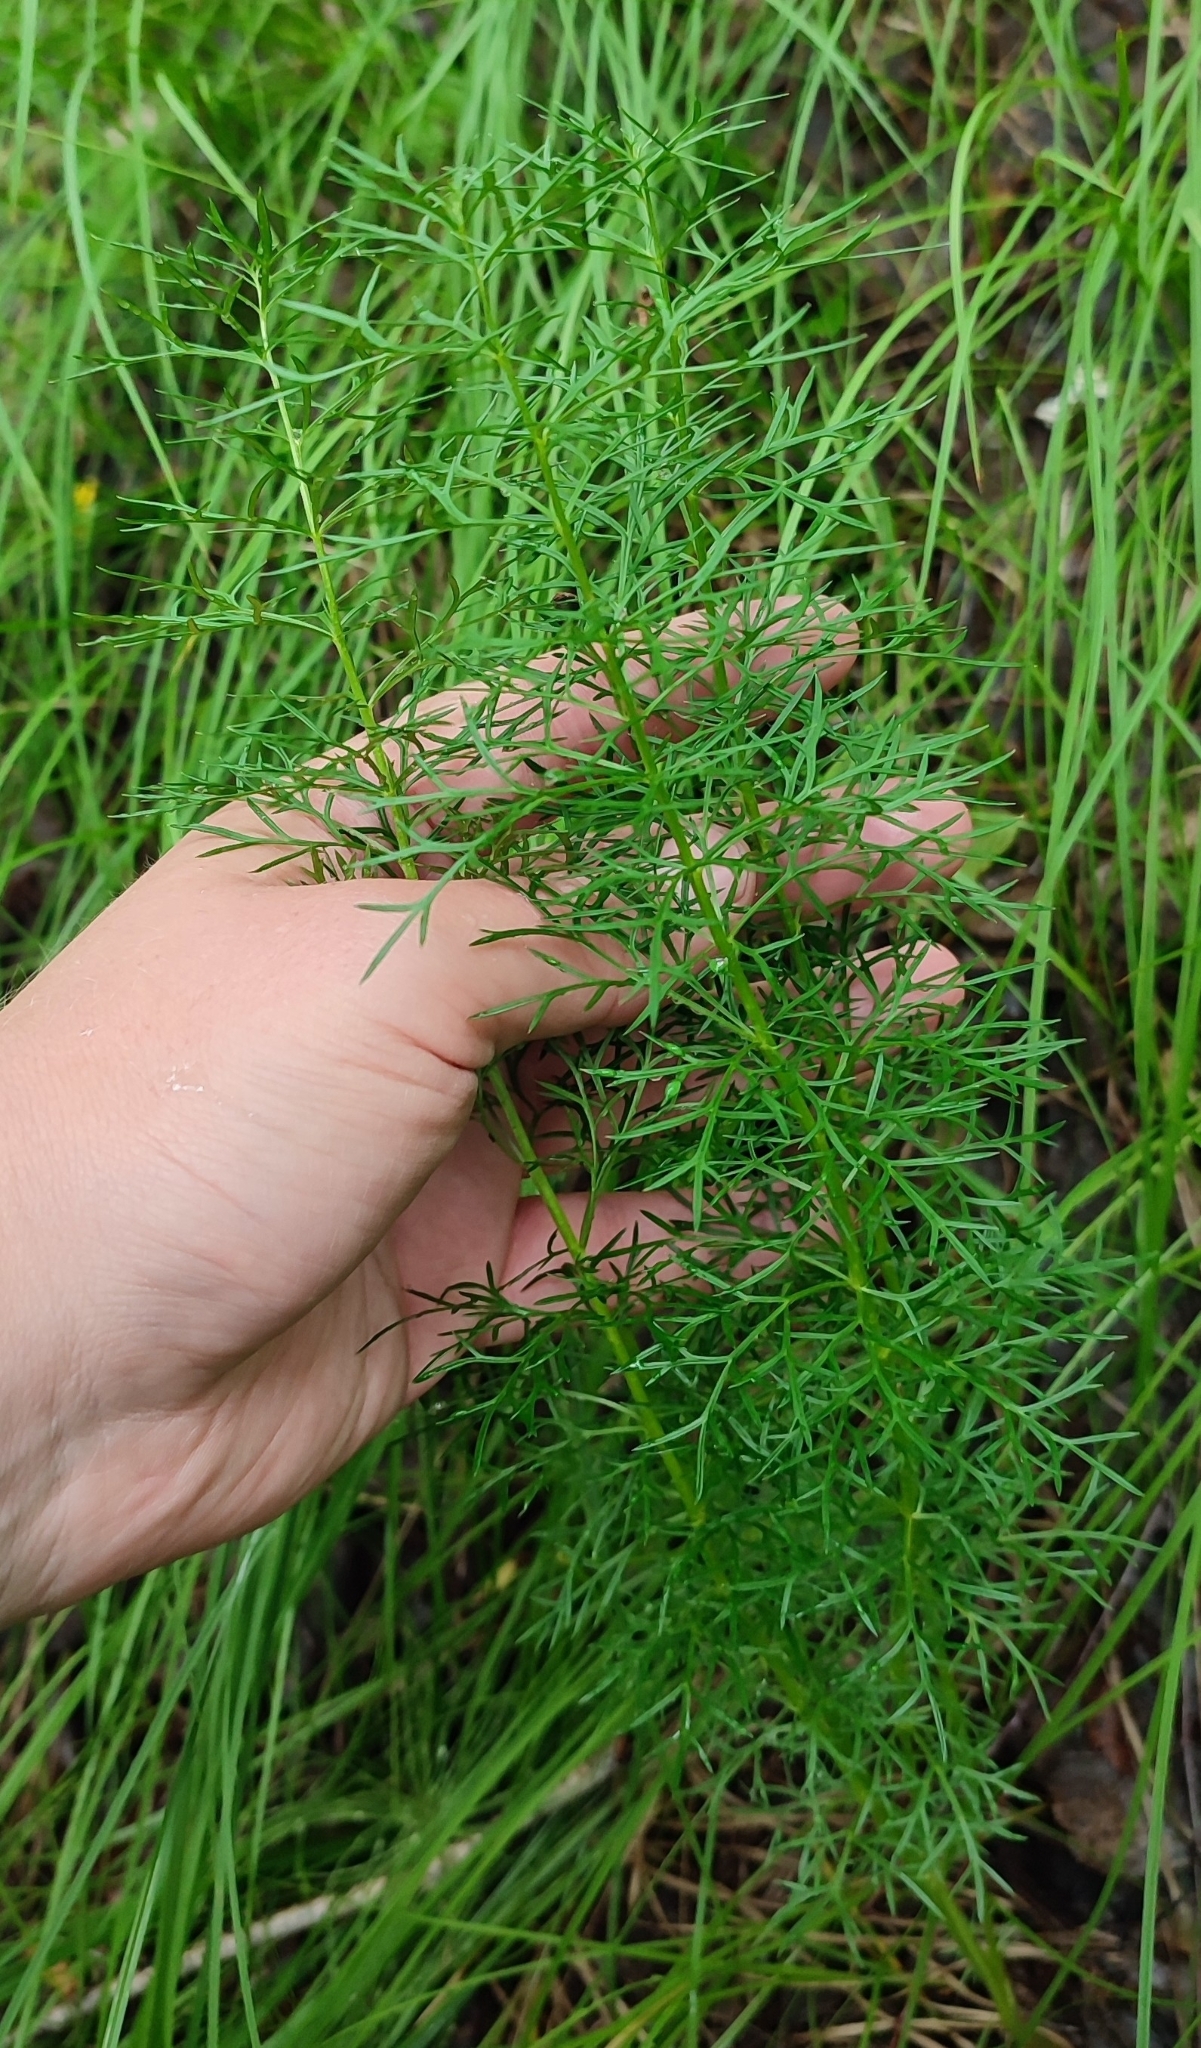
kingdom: Plantae
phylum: Tracheophyta
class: Magnoliopsida
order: Ranunculales
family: Ranunculaceae
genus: Adonis
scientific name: Adonis vernalis
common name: Yellow pheasants-eye
